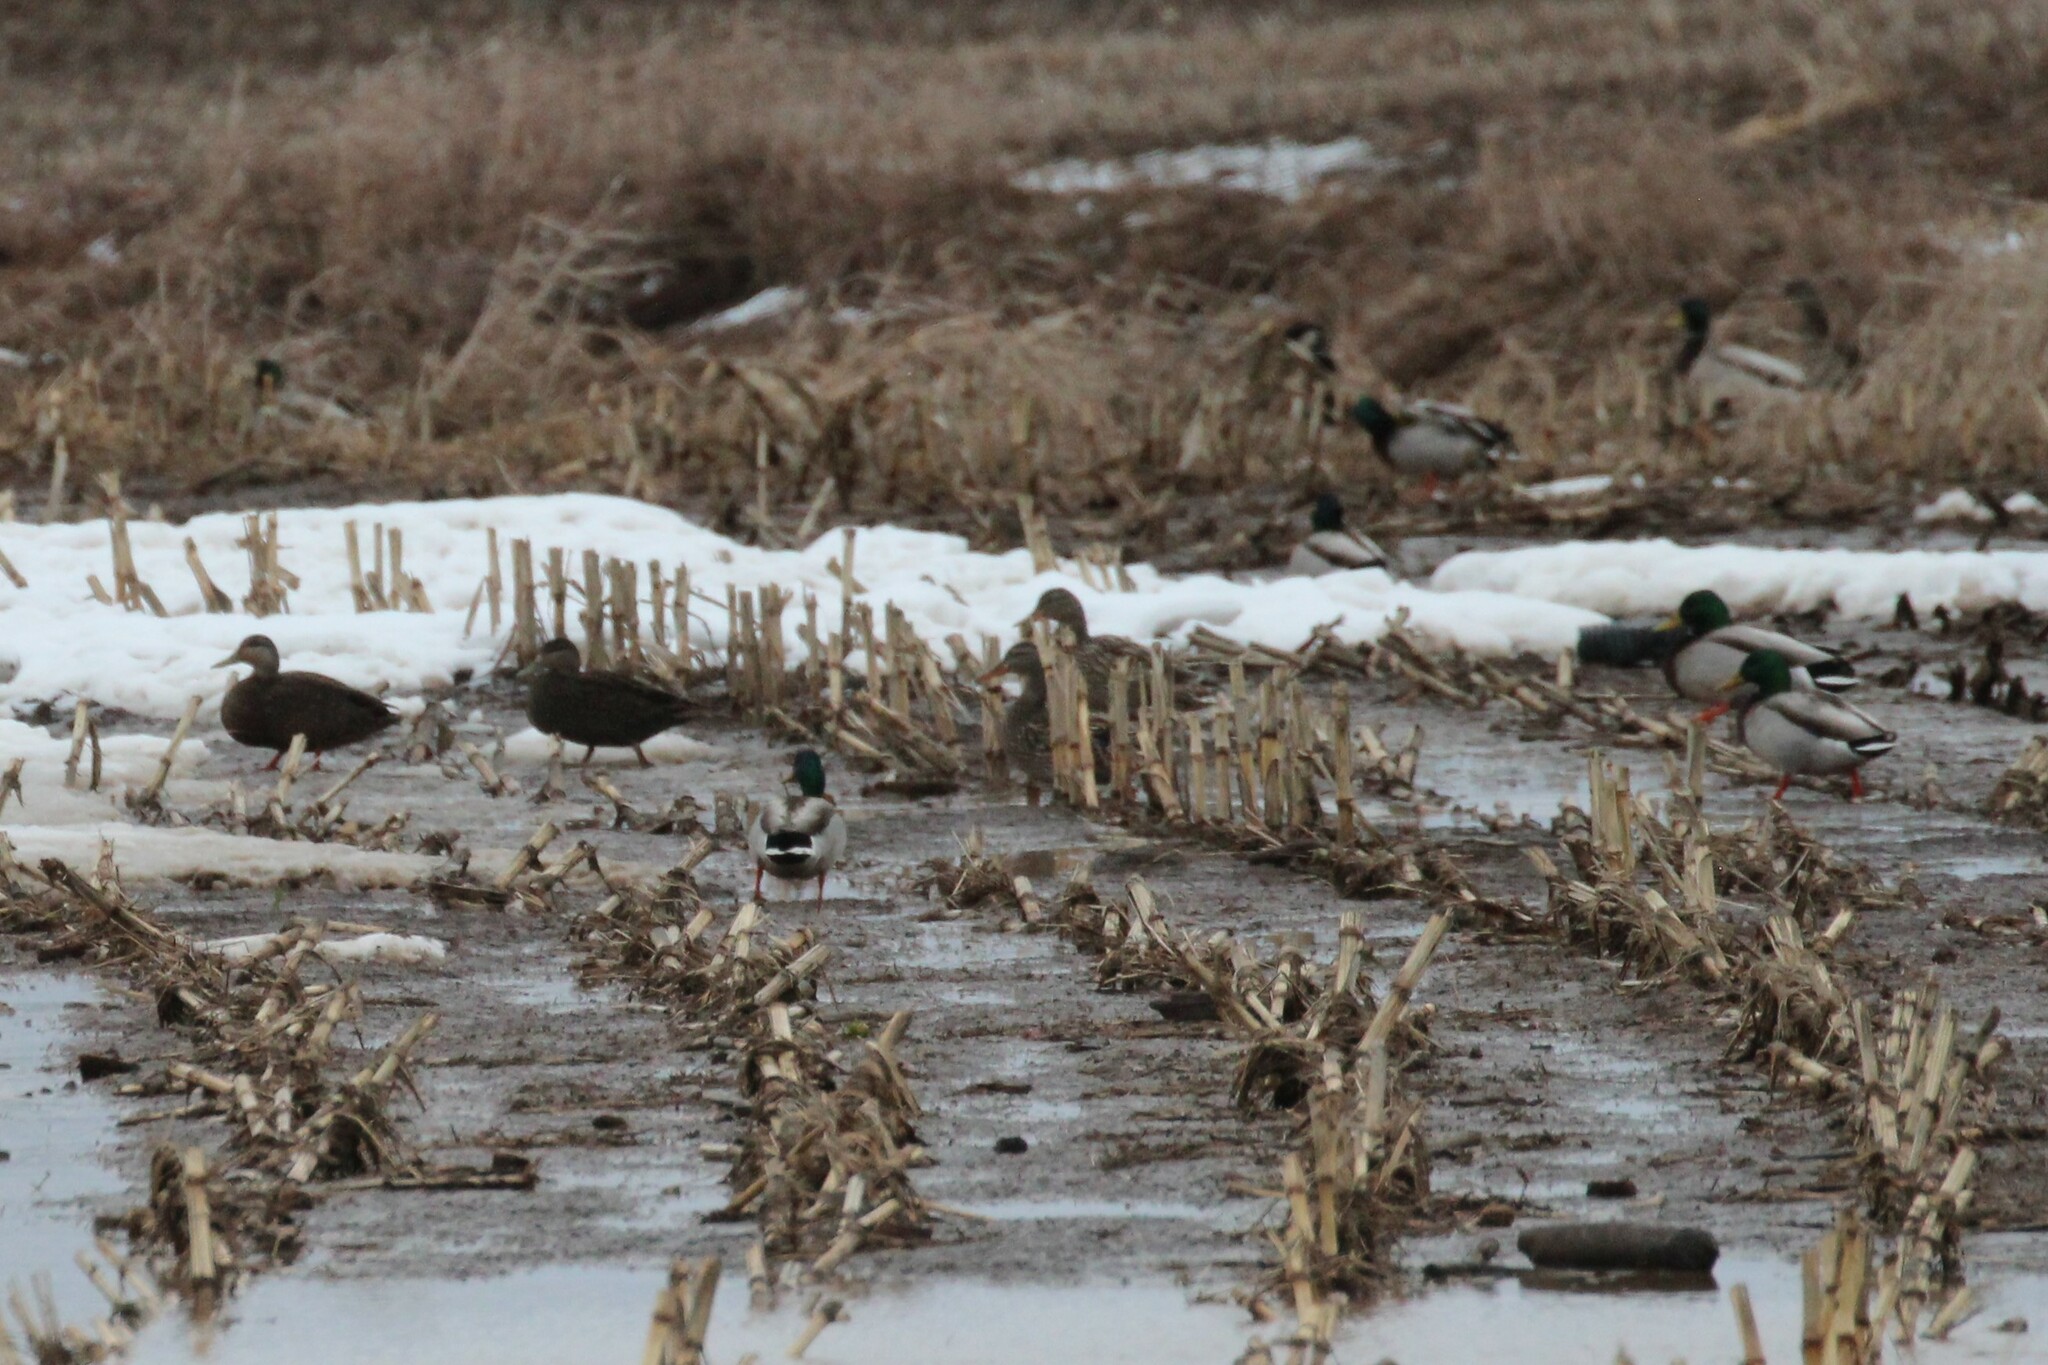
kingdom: Animalia
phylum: Chordata
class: Aves
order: Anseriformes
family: Anatidae
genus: Anas
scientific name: Anas rubripes
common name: American black duck
